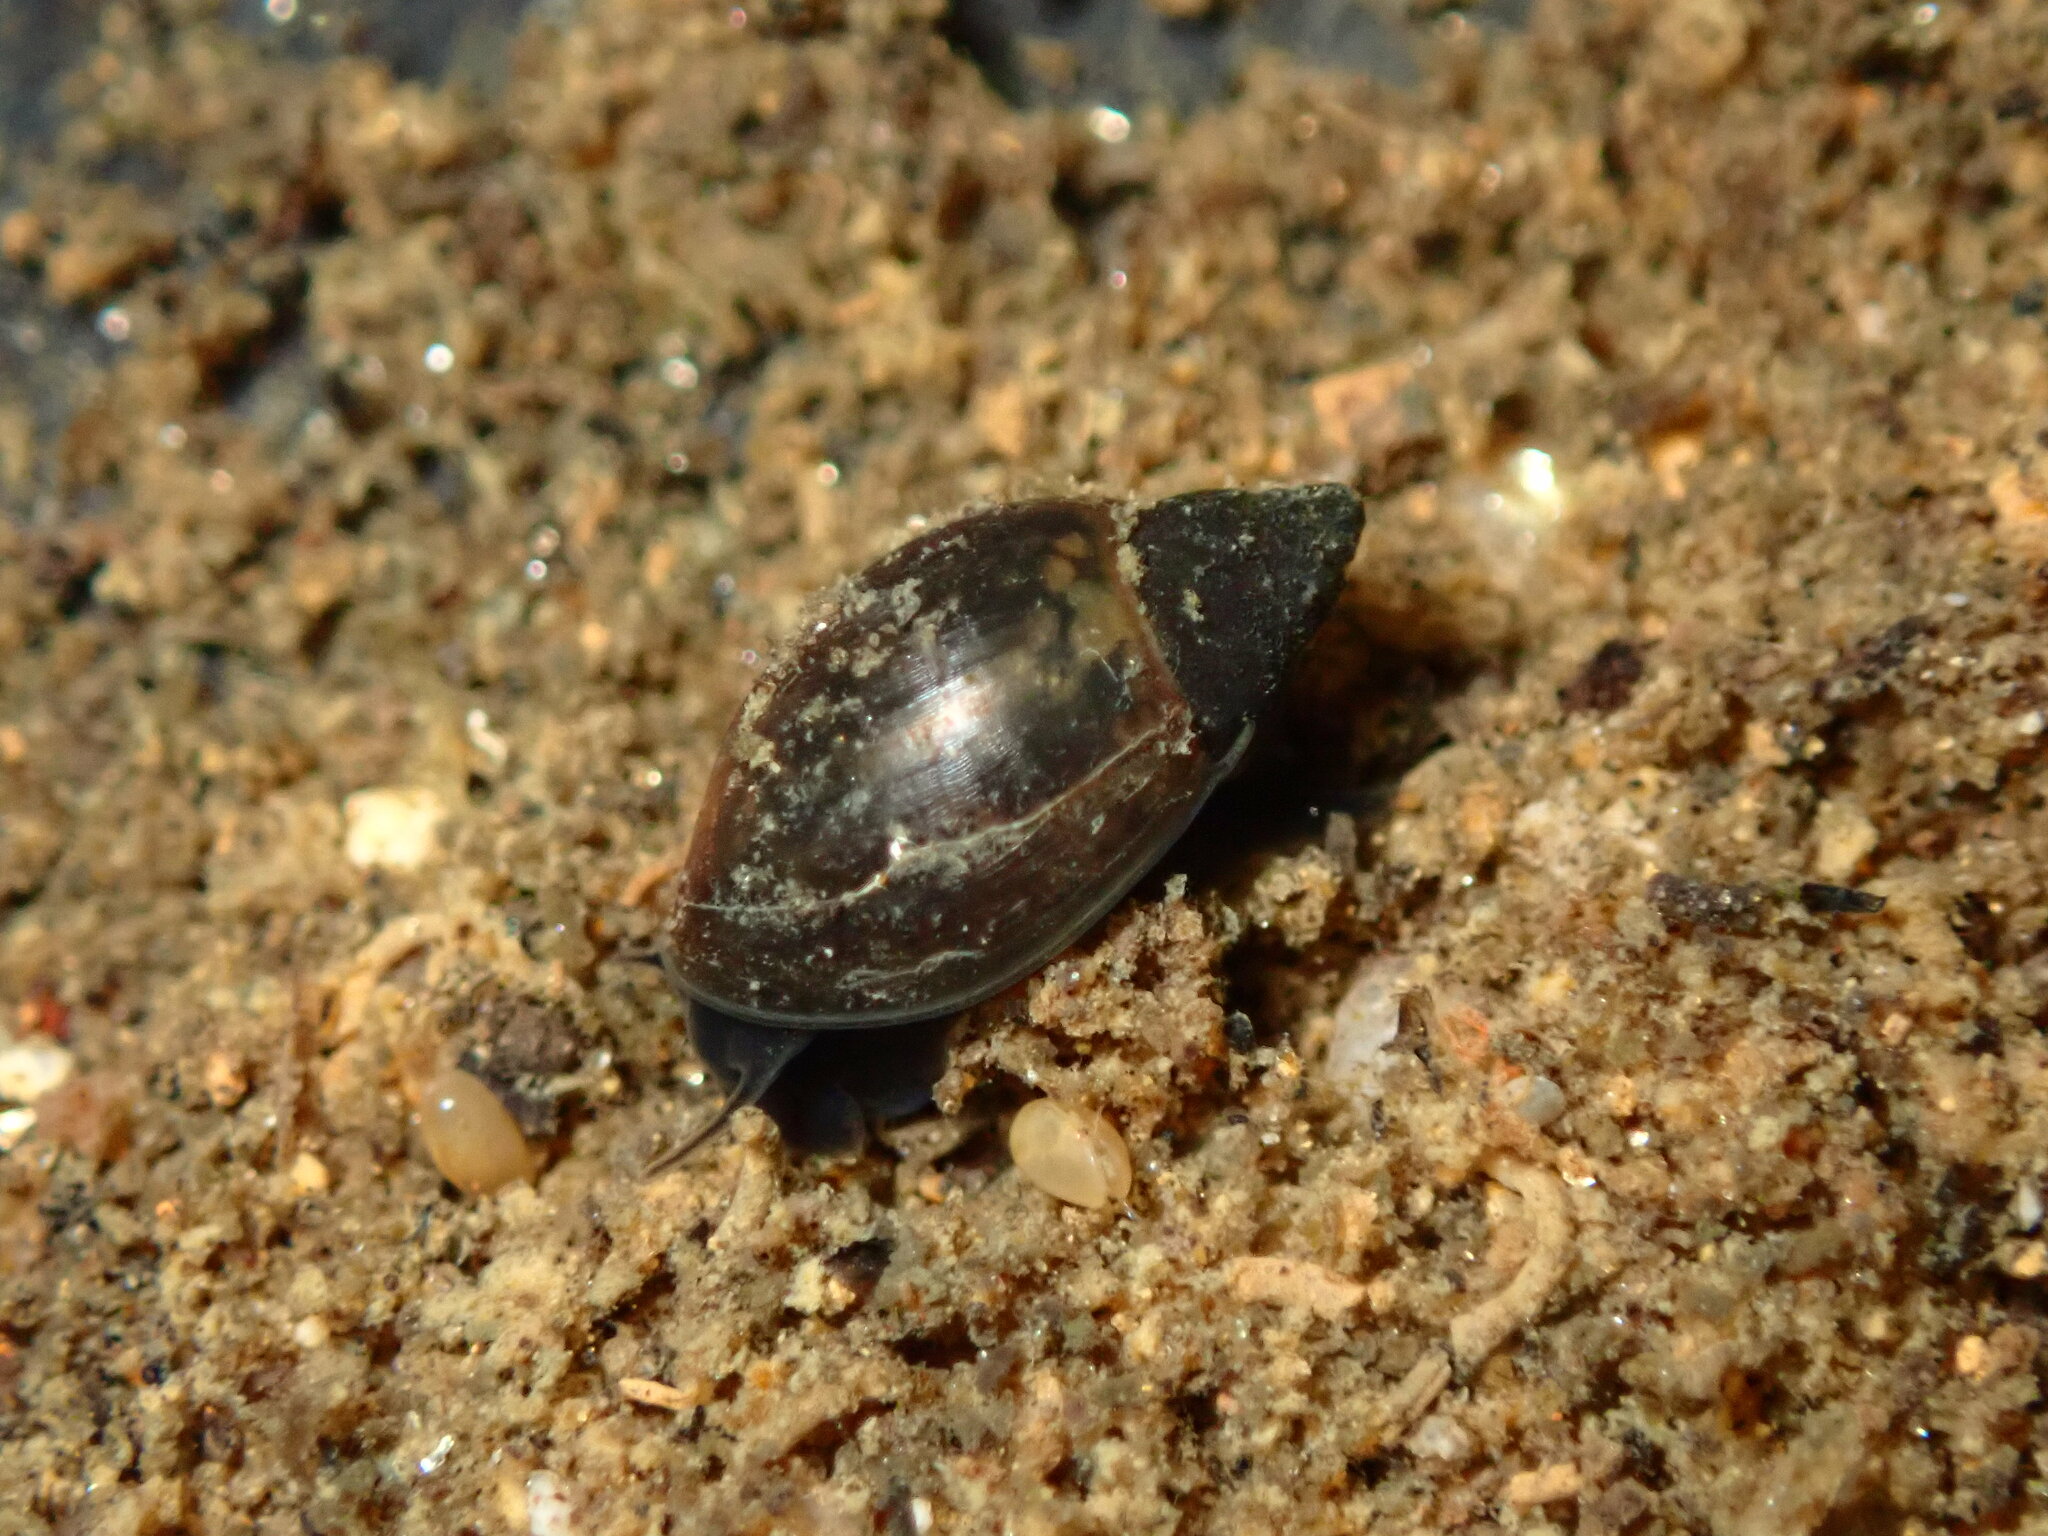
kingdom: Animalia
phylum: Mollusca
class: Gastropoda
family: Physidae
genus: Physella
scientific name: Physella acuta
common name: European physa
